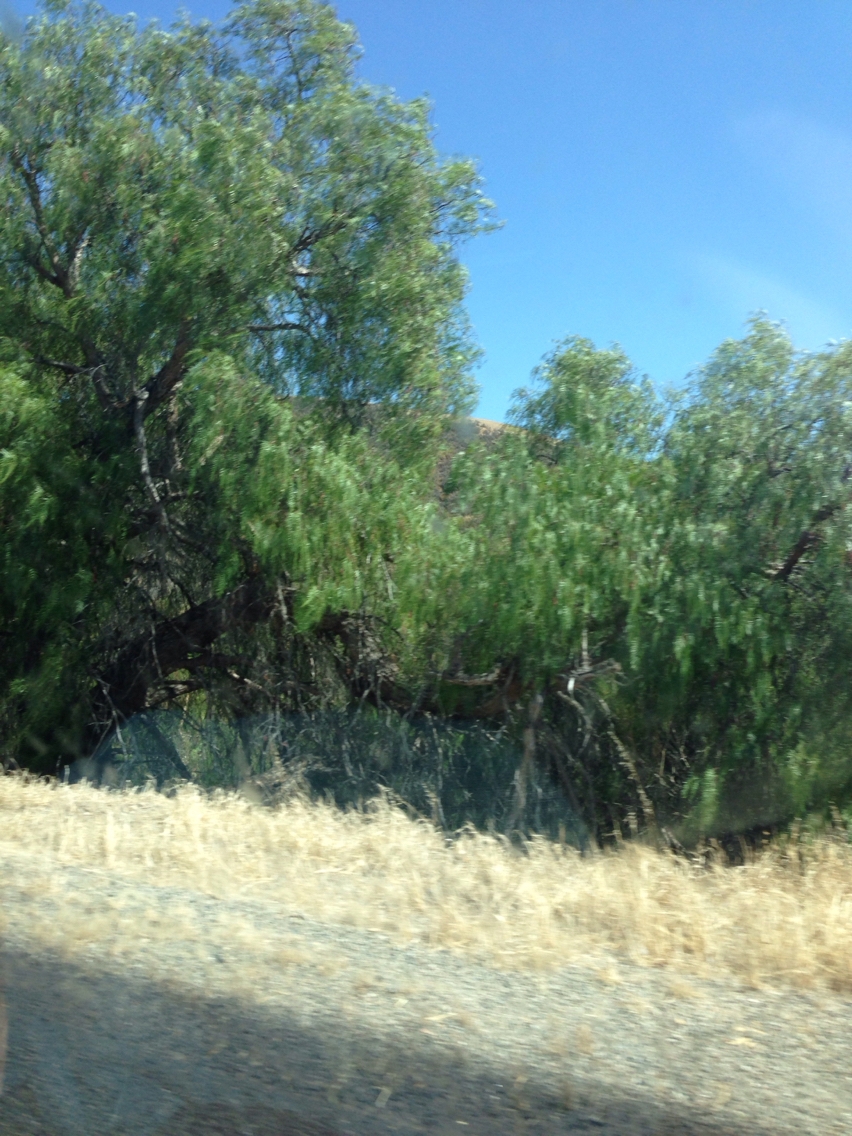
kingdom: Plantae
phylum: Tracheophyta
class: Magnoliopsida
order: Sapindales
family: Anacardiaceae
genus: Schinus
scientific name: Schinus molle
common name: Peruvian peppertree
